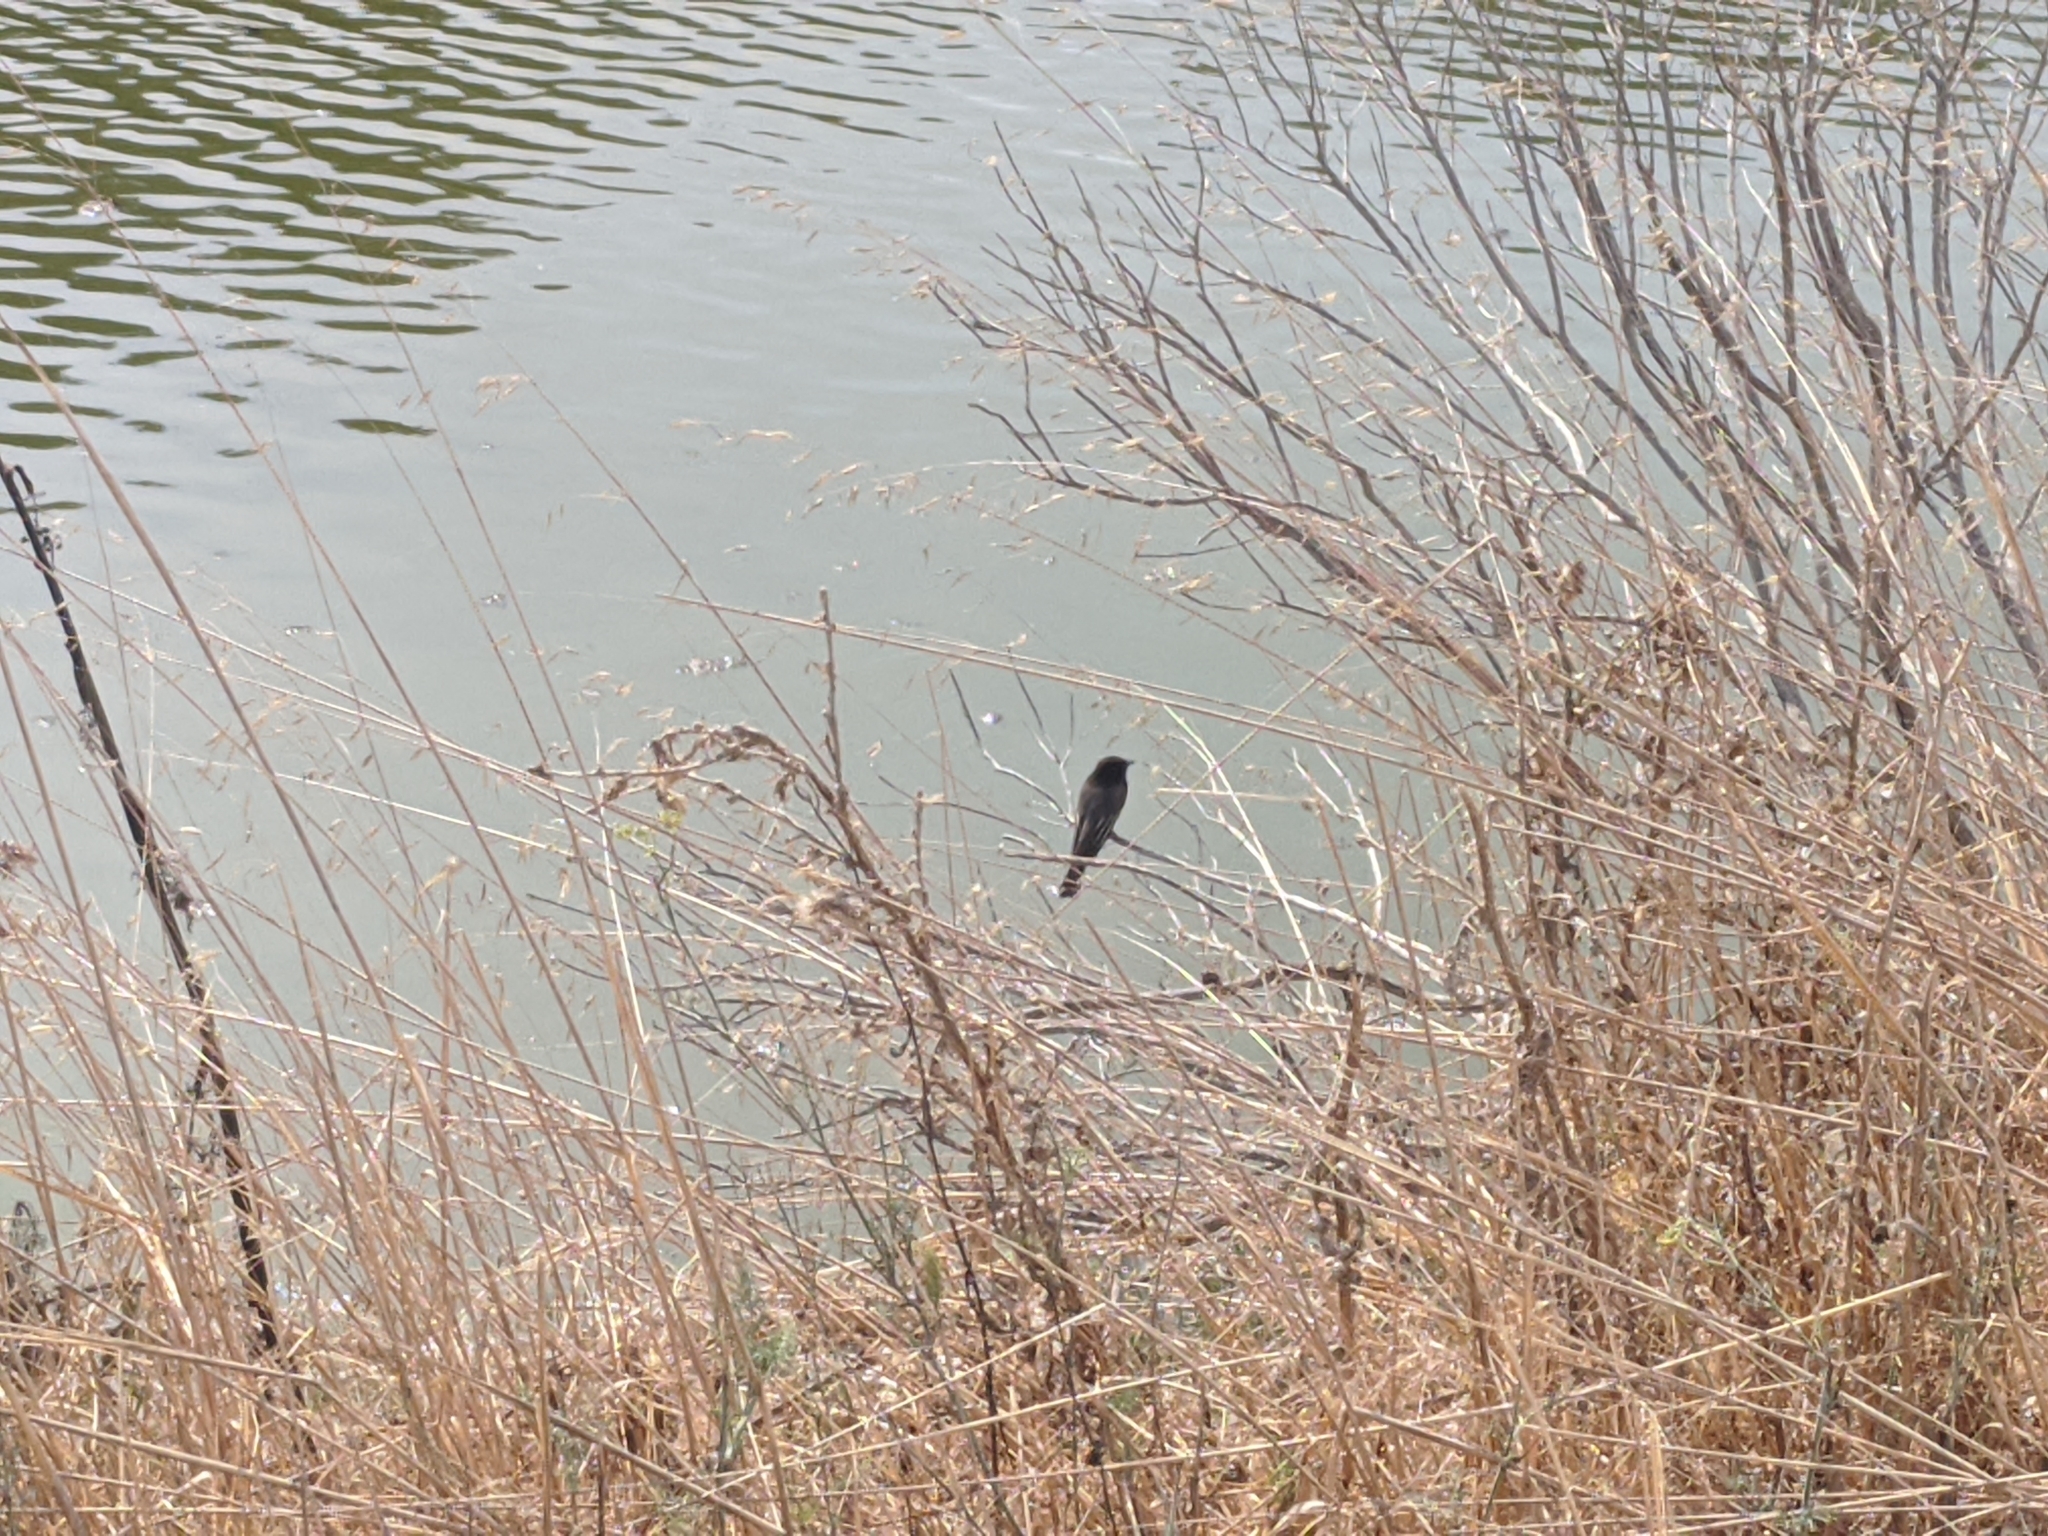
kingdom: Animalia
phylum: Chordata
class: Aves
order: Passeriformes
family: Tyrannidae
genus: Sayornis
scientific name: Sayornis nigricans
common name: Black phoebe
